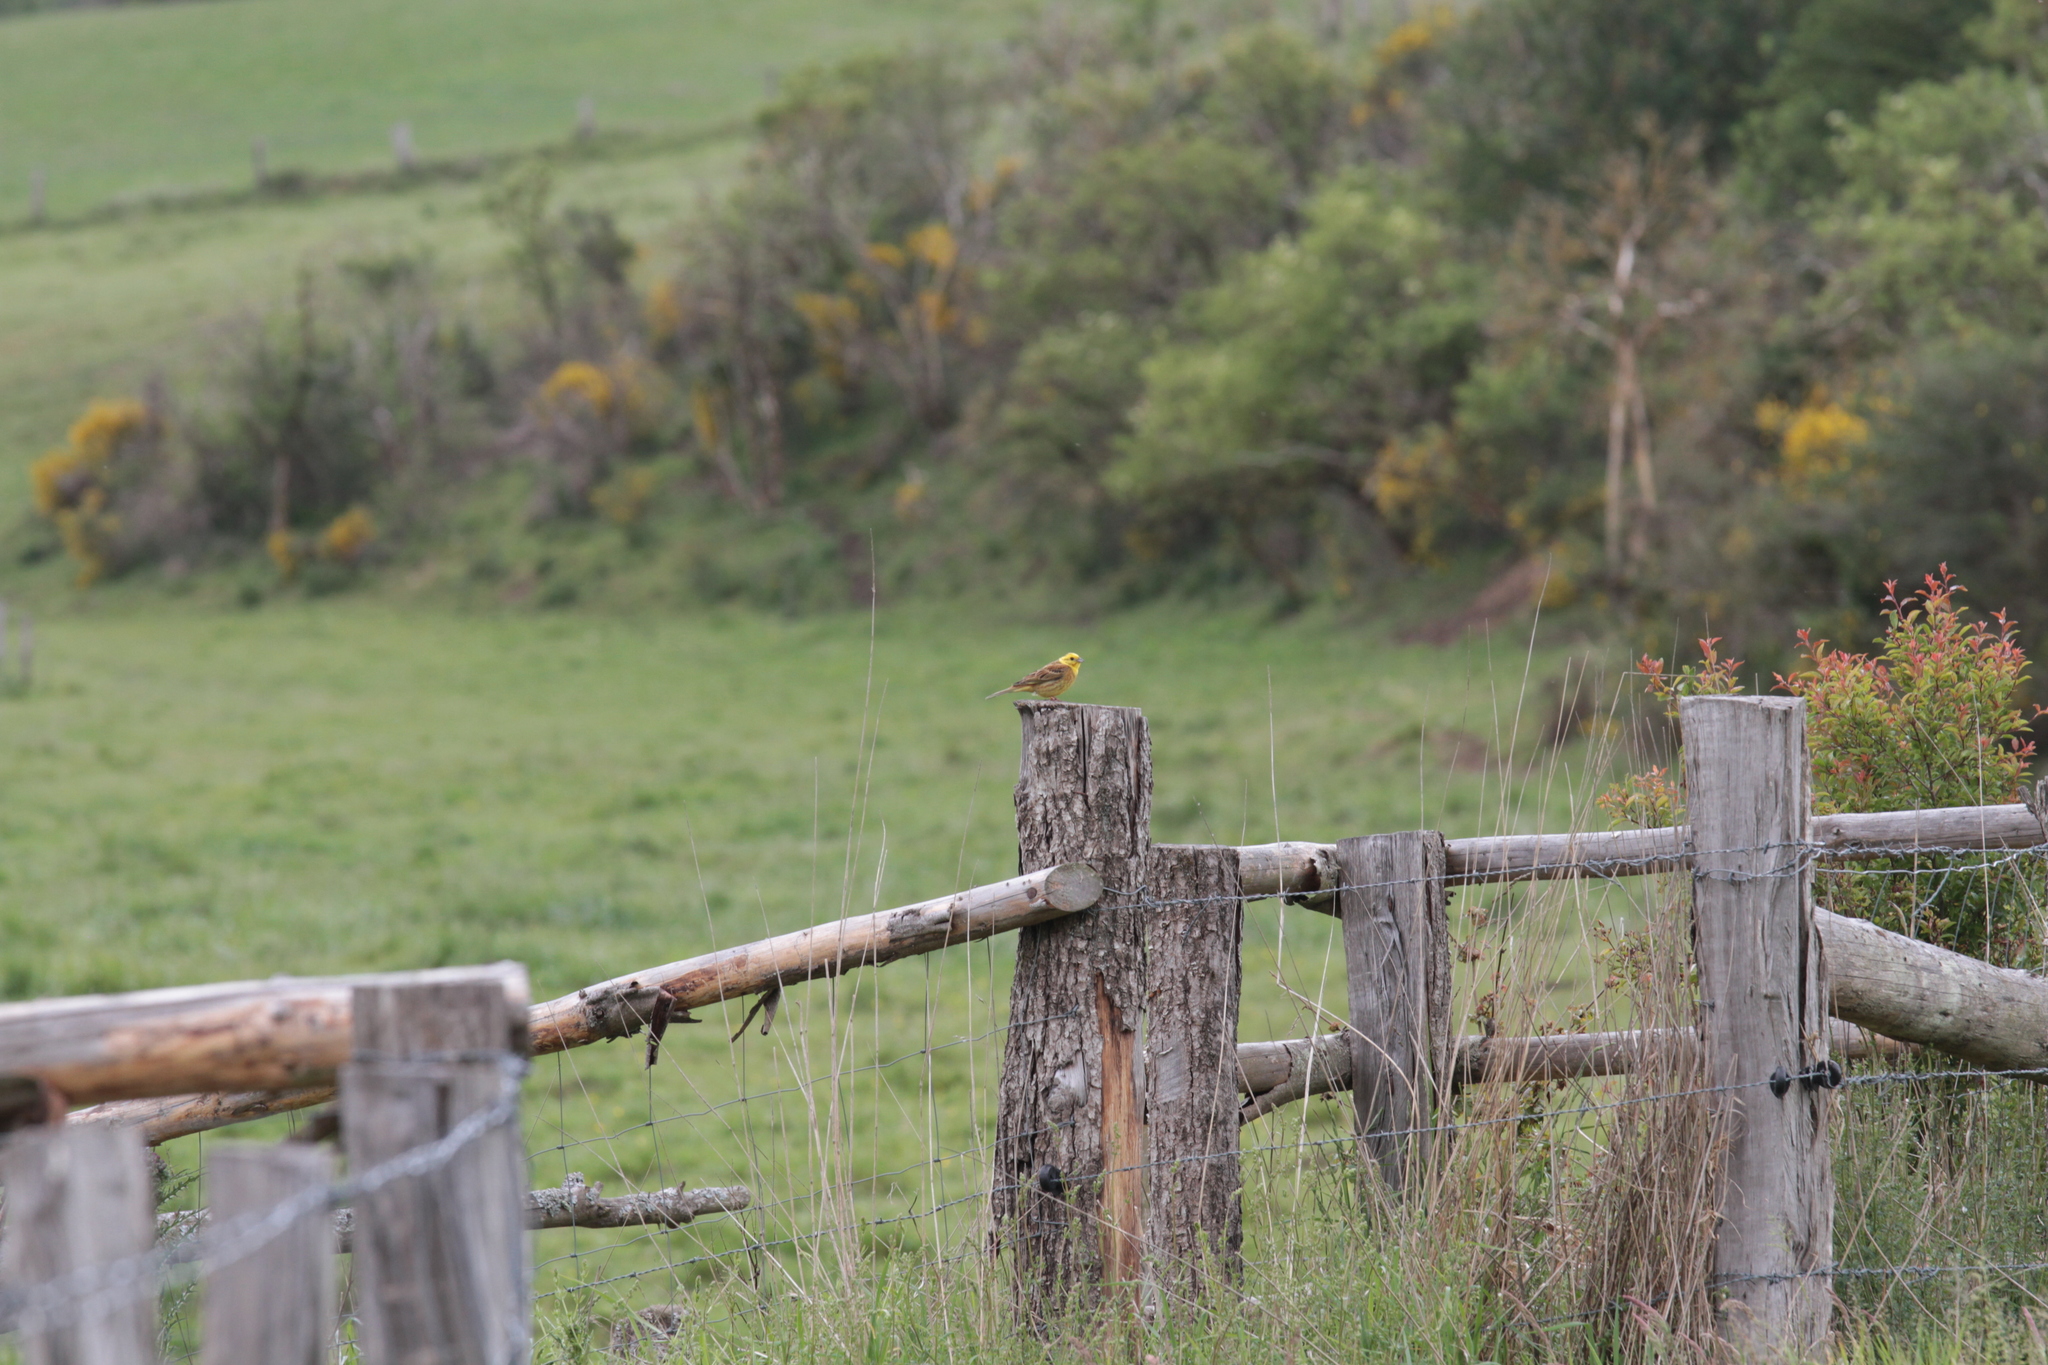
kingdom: Animalia
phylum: Chordata
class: Aves
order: Passeriformes
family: Emberizidae
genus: Emberiza
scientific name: Emberiza citrinella
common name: Yellowhammer
